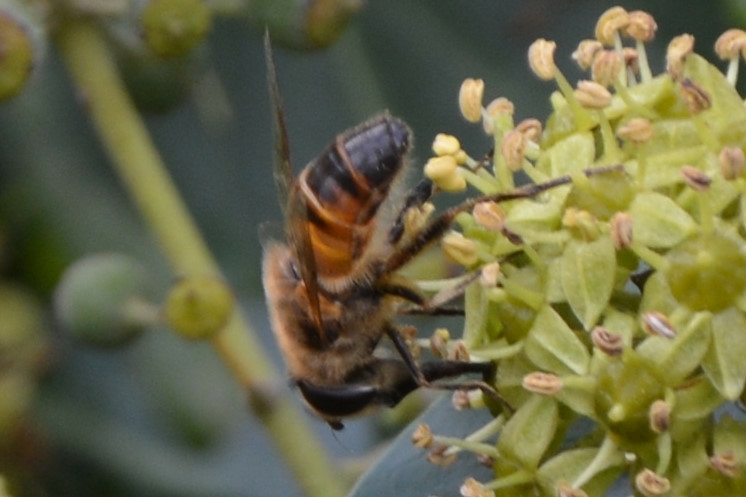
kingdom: Animalia
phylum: Arthropoda
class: Insecta
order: Diptera
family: Syrphidae
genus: Eristalis
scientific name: Eristalis tenax
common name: Drone fly
